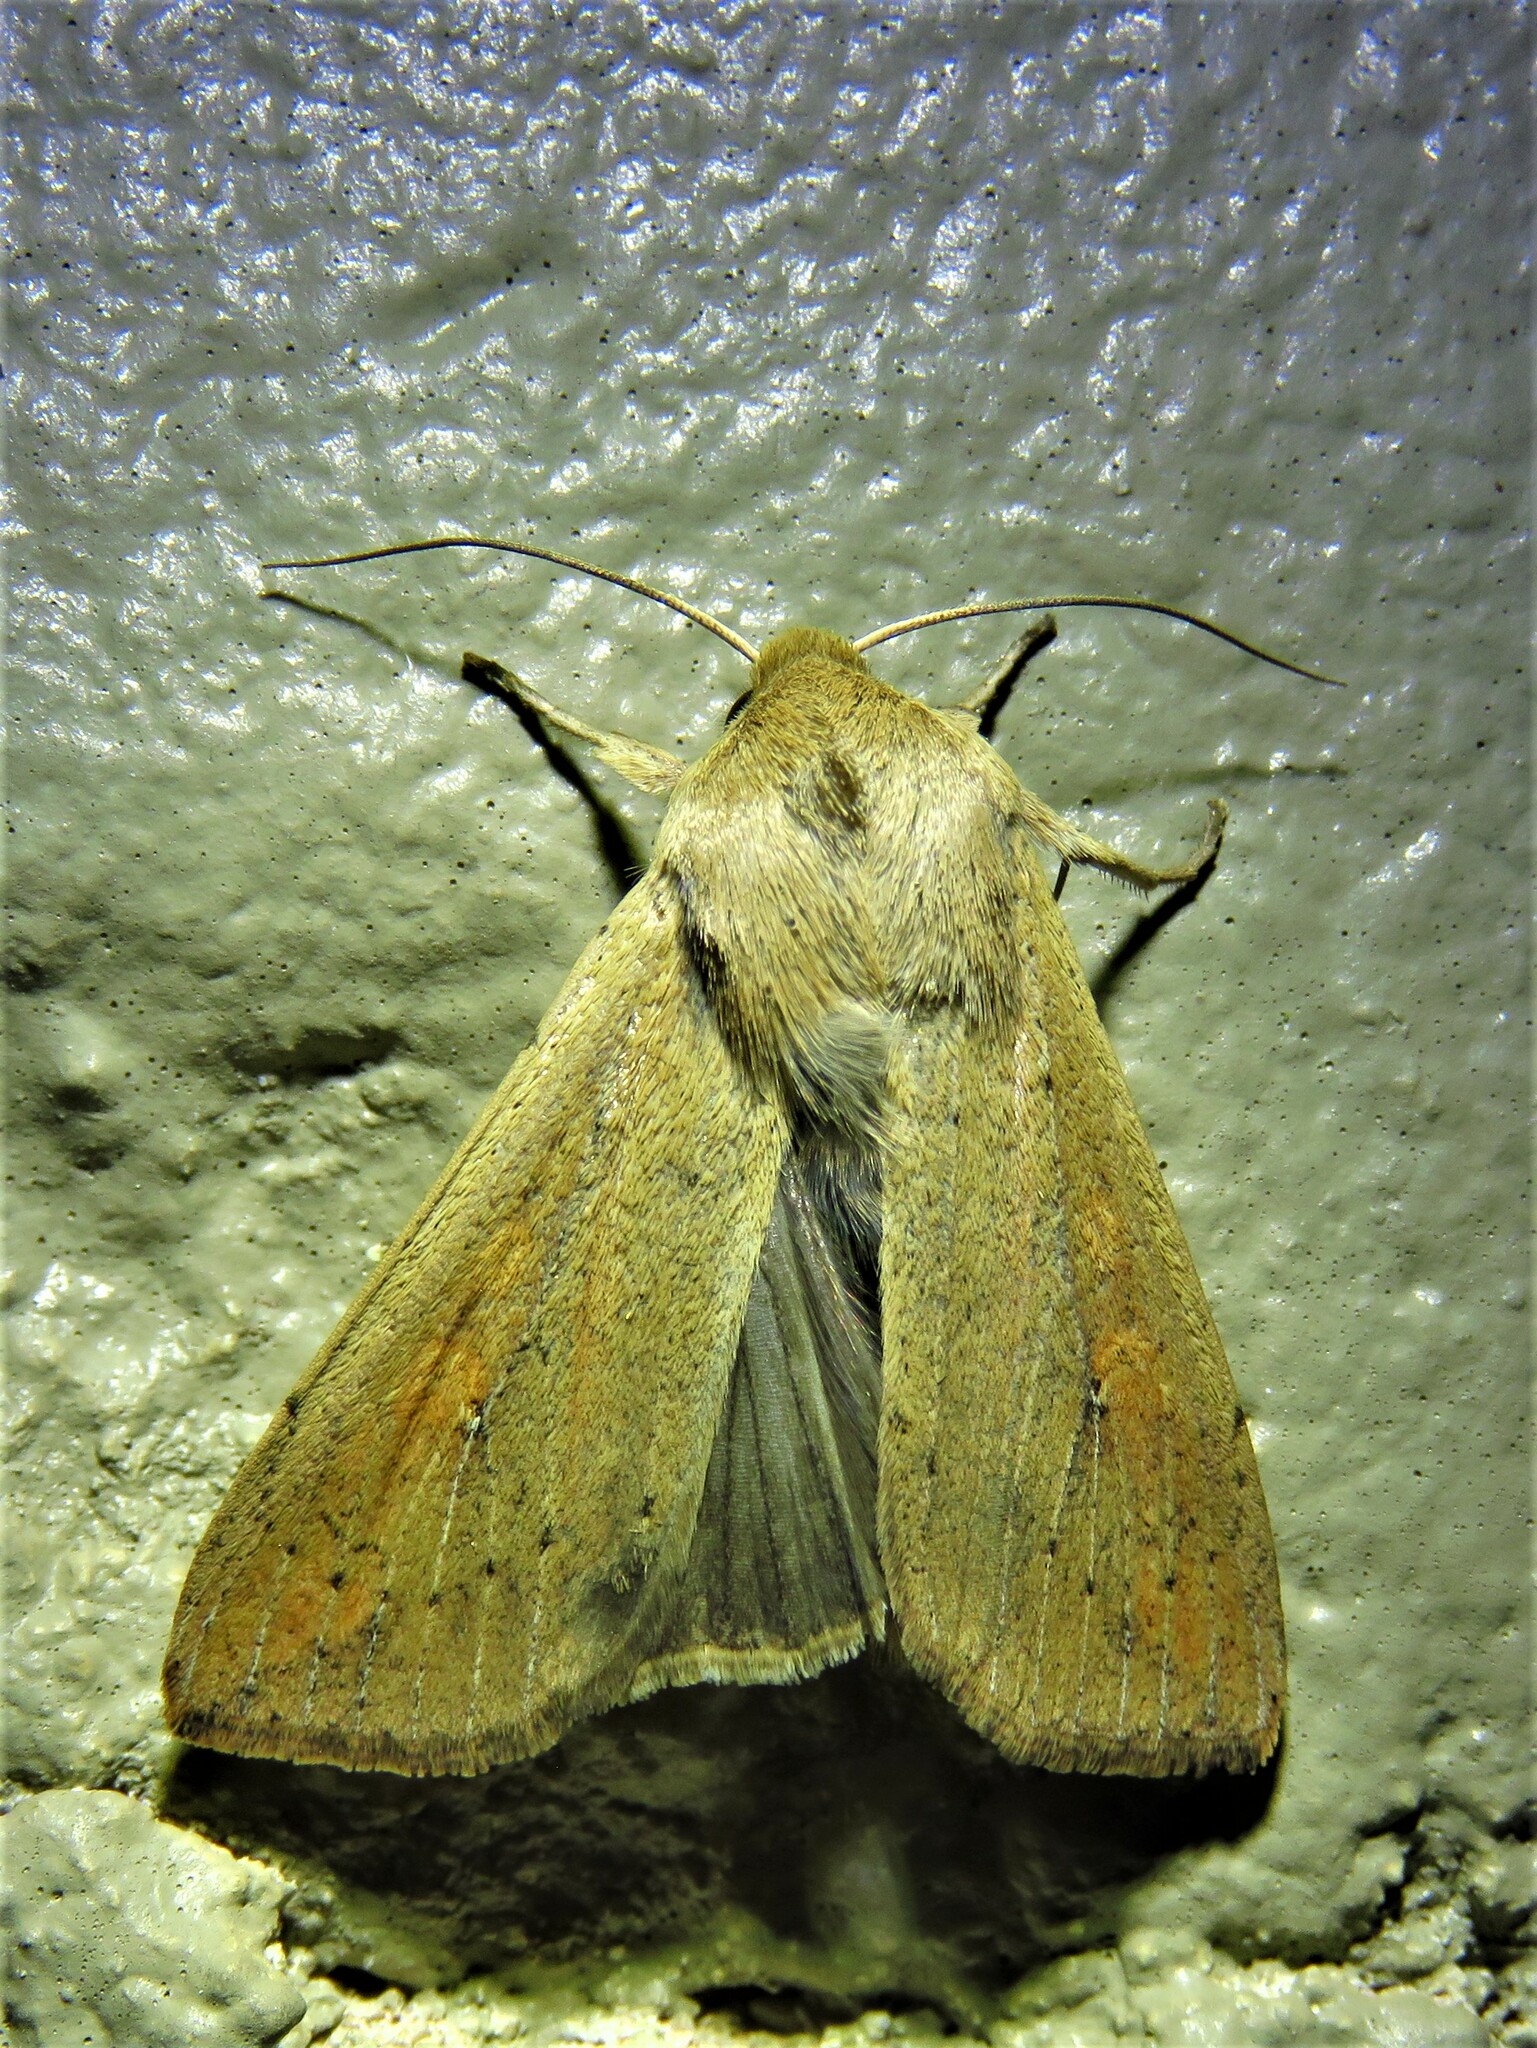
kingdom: Animalia
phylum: Arthropoda
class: Insecta
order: Lepidoptera
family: Noctuidae
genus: Mythimna
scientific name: Mythimna unipuncta
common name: White-speck
